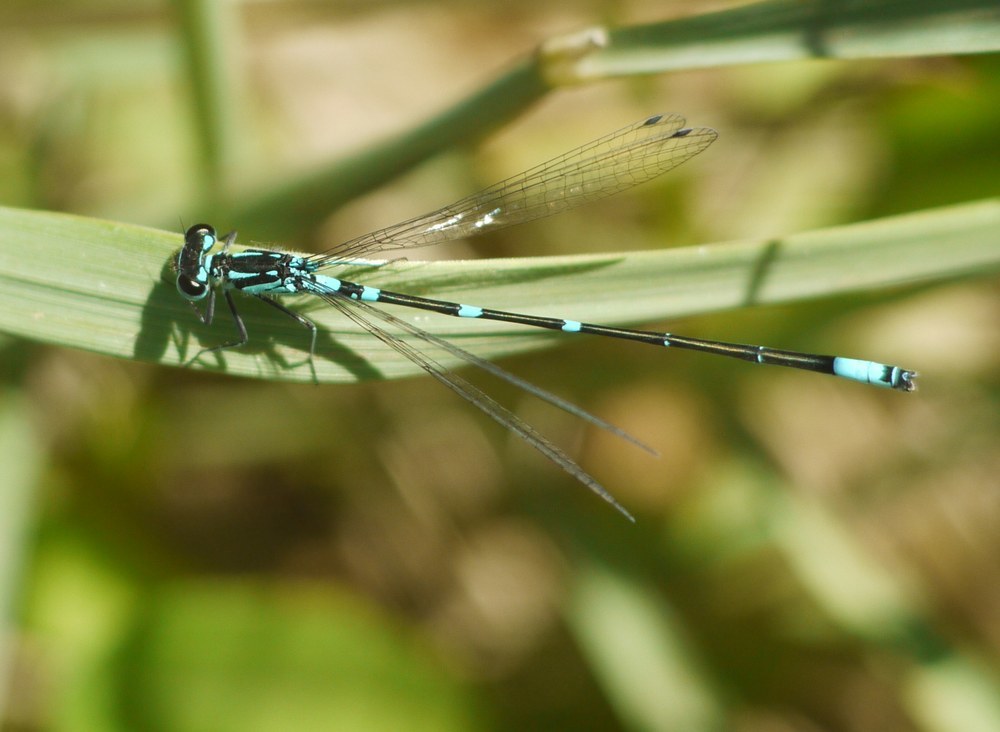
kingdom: Animalia
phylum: Arthropoda
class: Insecta
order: Odonata
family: Coenagrionidae
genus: Coenagrion
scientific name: Coenagrion pulchellum
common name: Variable bluet
